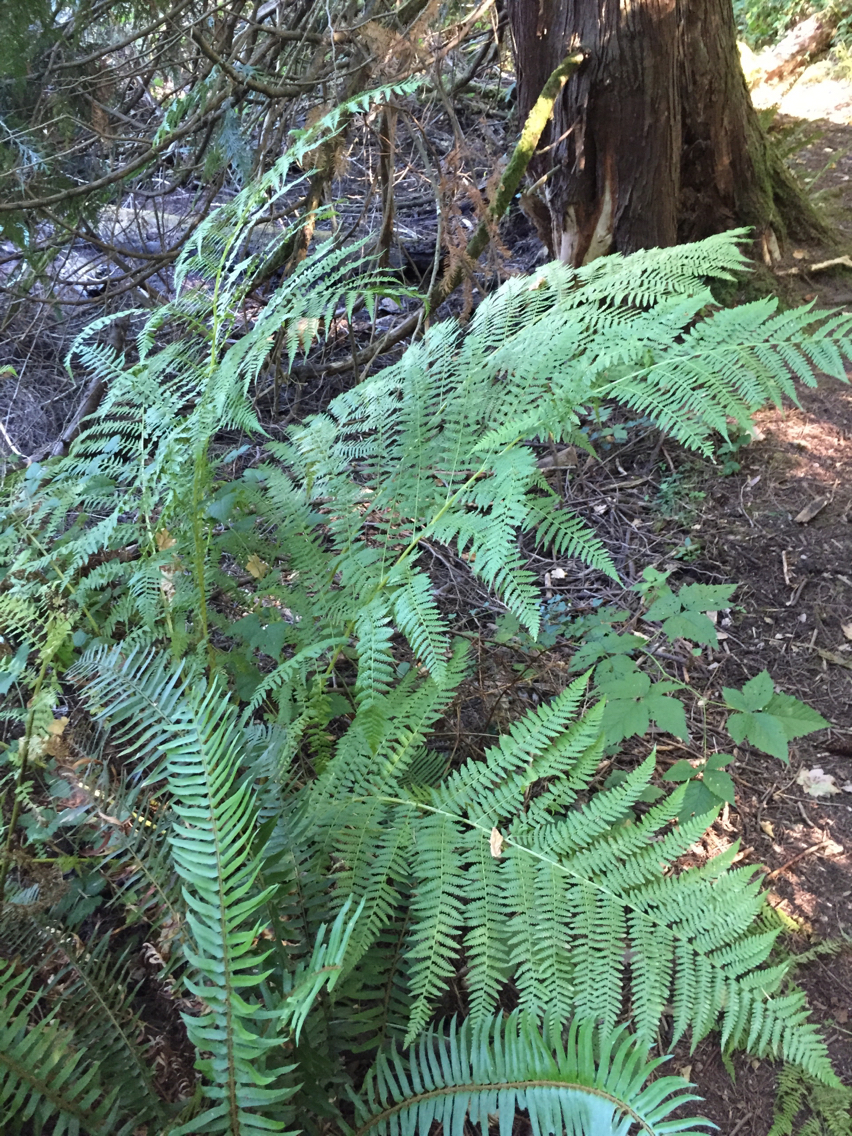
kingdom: Plantae
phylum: Tracheophyta
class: Polypodiopsida
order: Polypodiales
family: Athyriaceae
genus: Athyrium
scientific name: Athyrium filix-femina
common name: Lady fern
